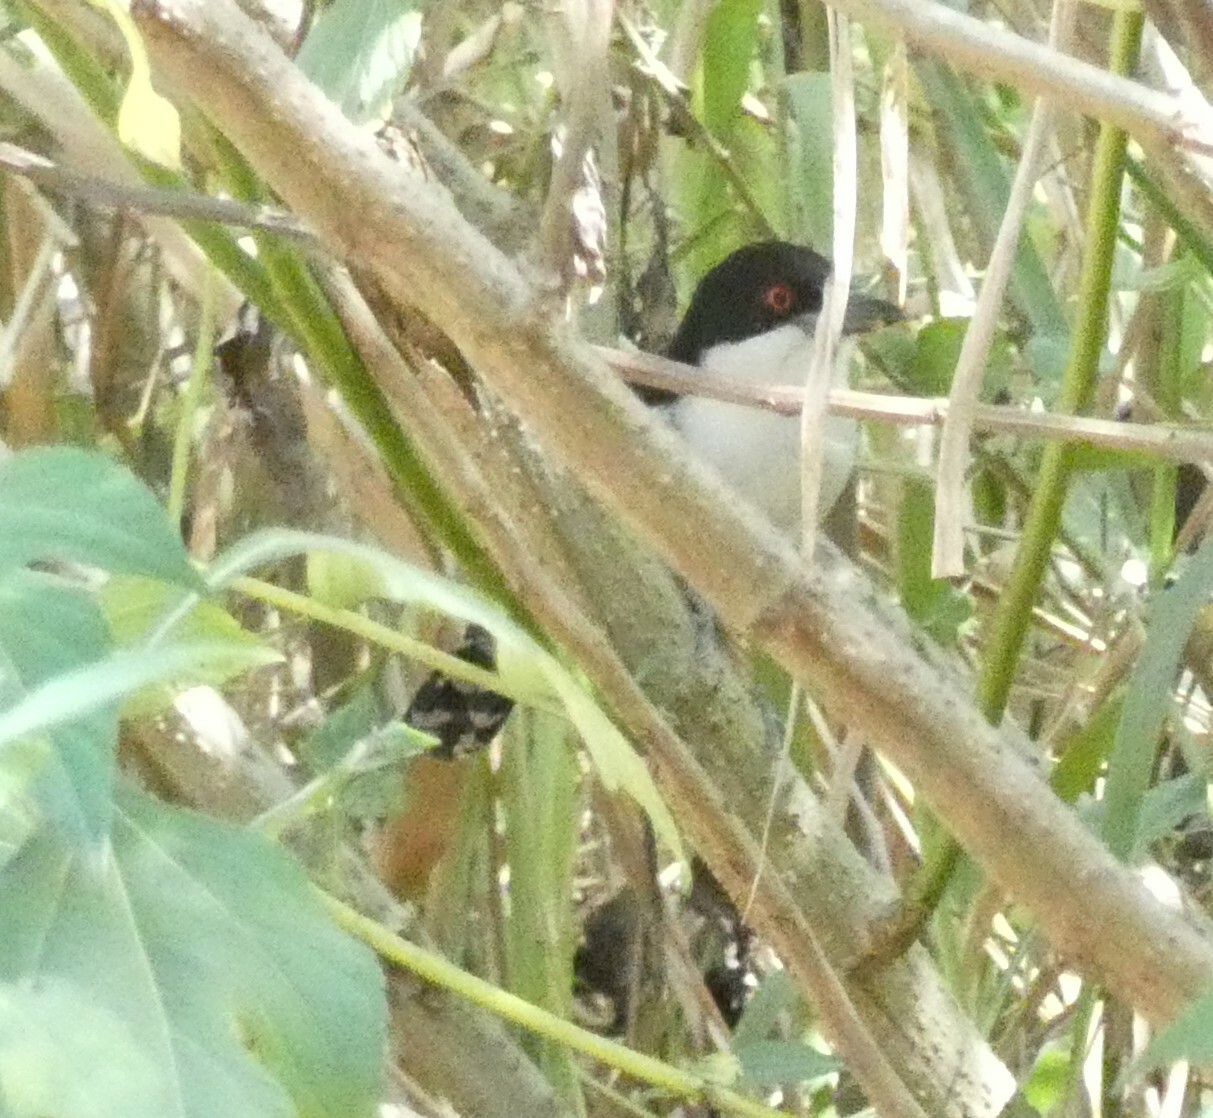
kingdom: Animalia
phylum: Chordata
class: Aves
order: Passeriformes
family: Thamnophilidae
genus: Taraba
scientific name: Taraba major
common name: Great antshrike
